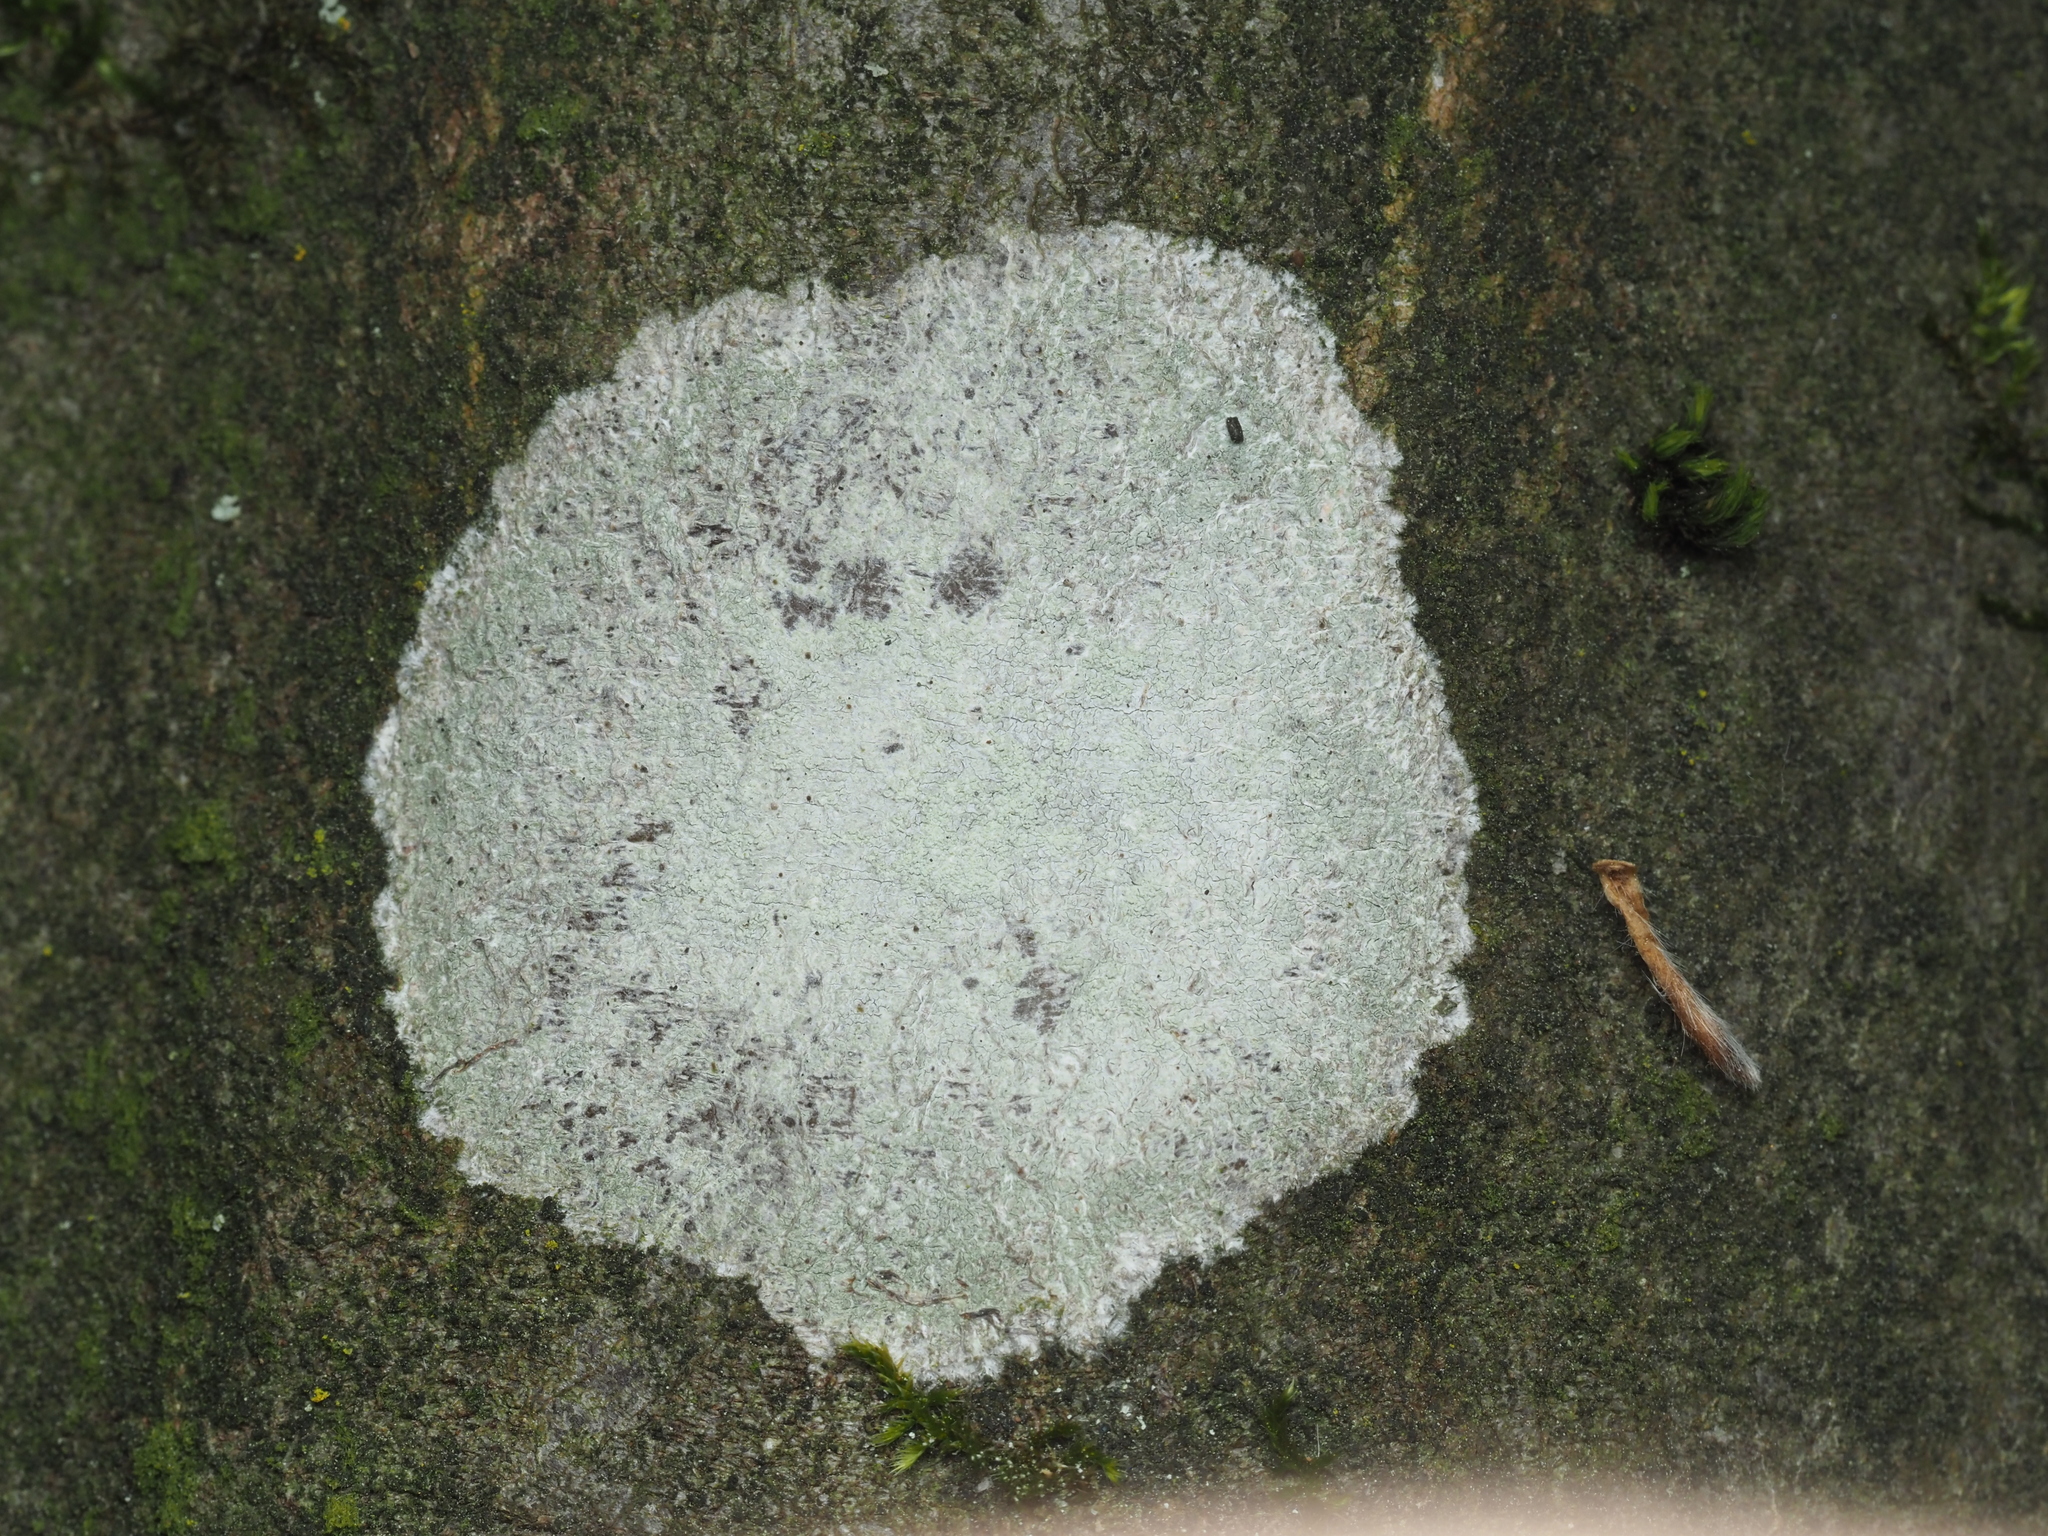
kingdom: Fungi
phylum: Ascomycota
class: Lecanoromycetes
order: Ostropales
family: Phlyctidaceae
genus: Phlyctis
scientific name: Phlyctis argena
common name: Whitewash lichen
